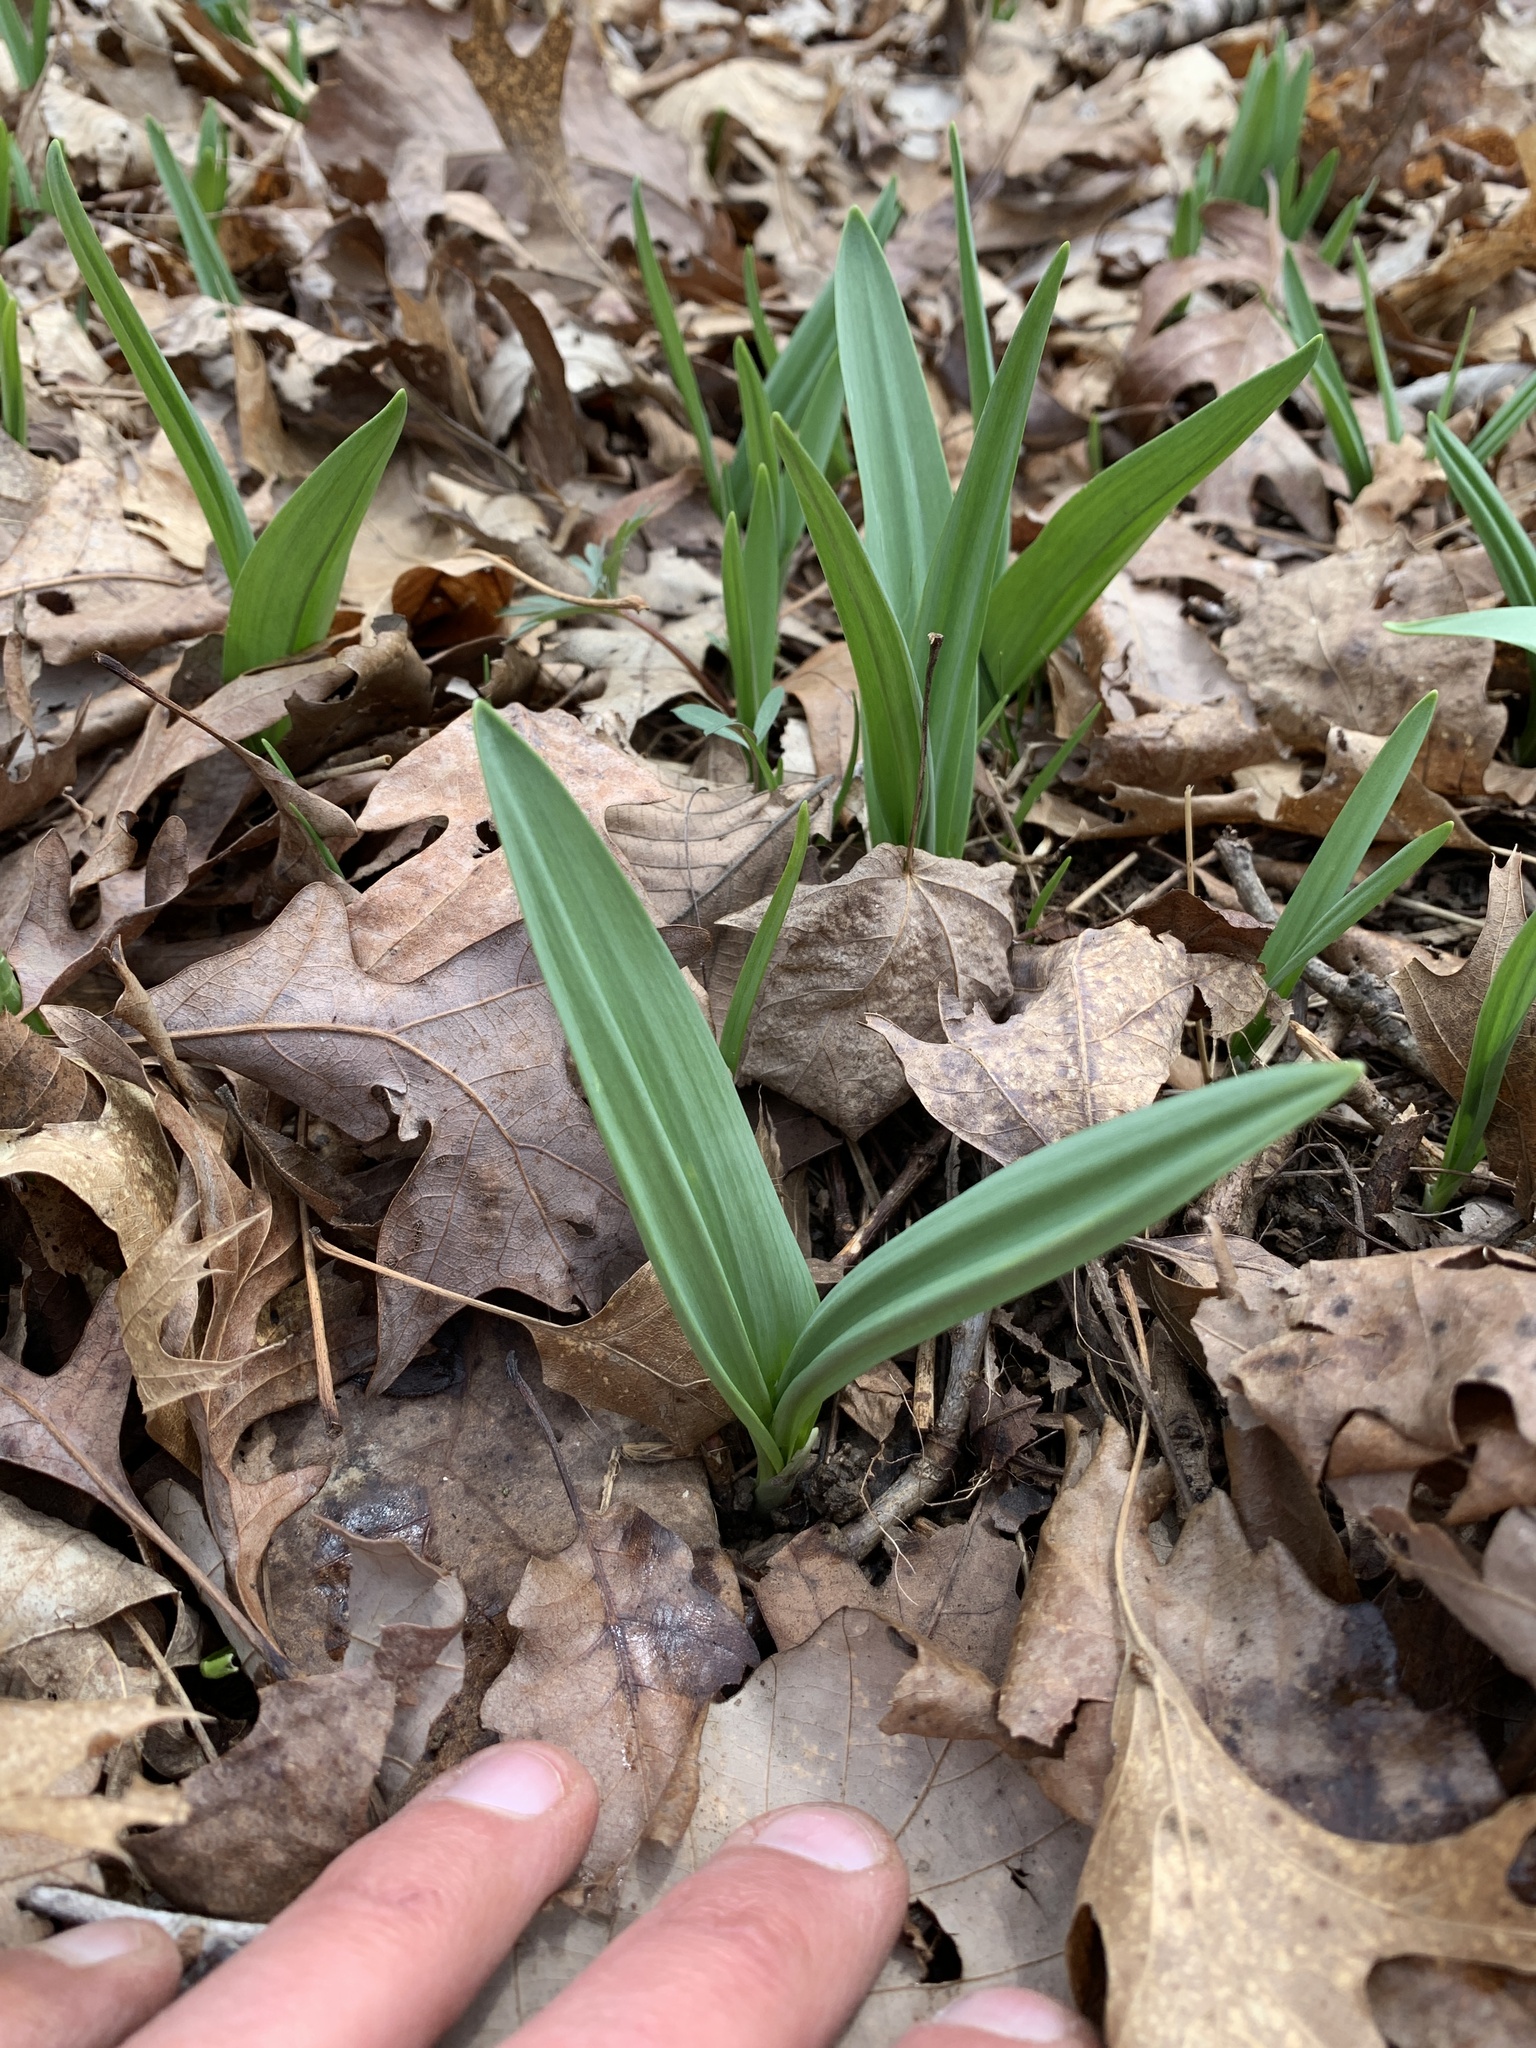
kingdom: Plantae
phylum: Tracheophyta
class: Liliopsida
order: Asparagales
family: Amaryllidaceae
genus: Allium
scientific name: Allium tricoccum
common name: Ramp
